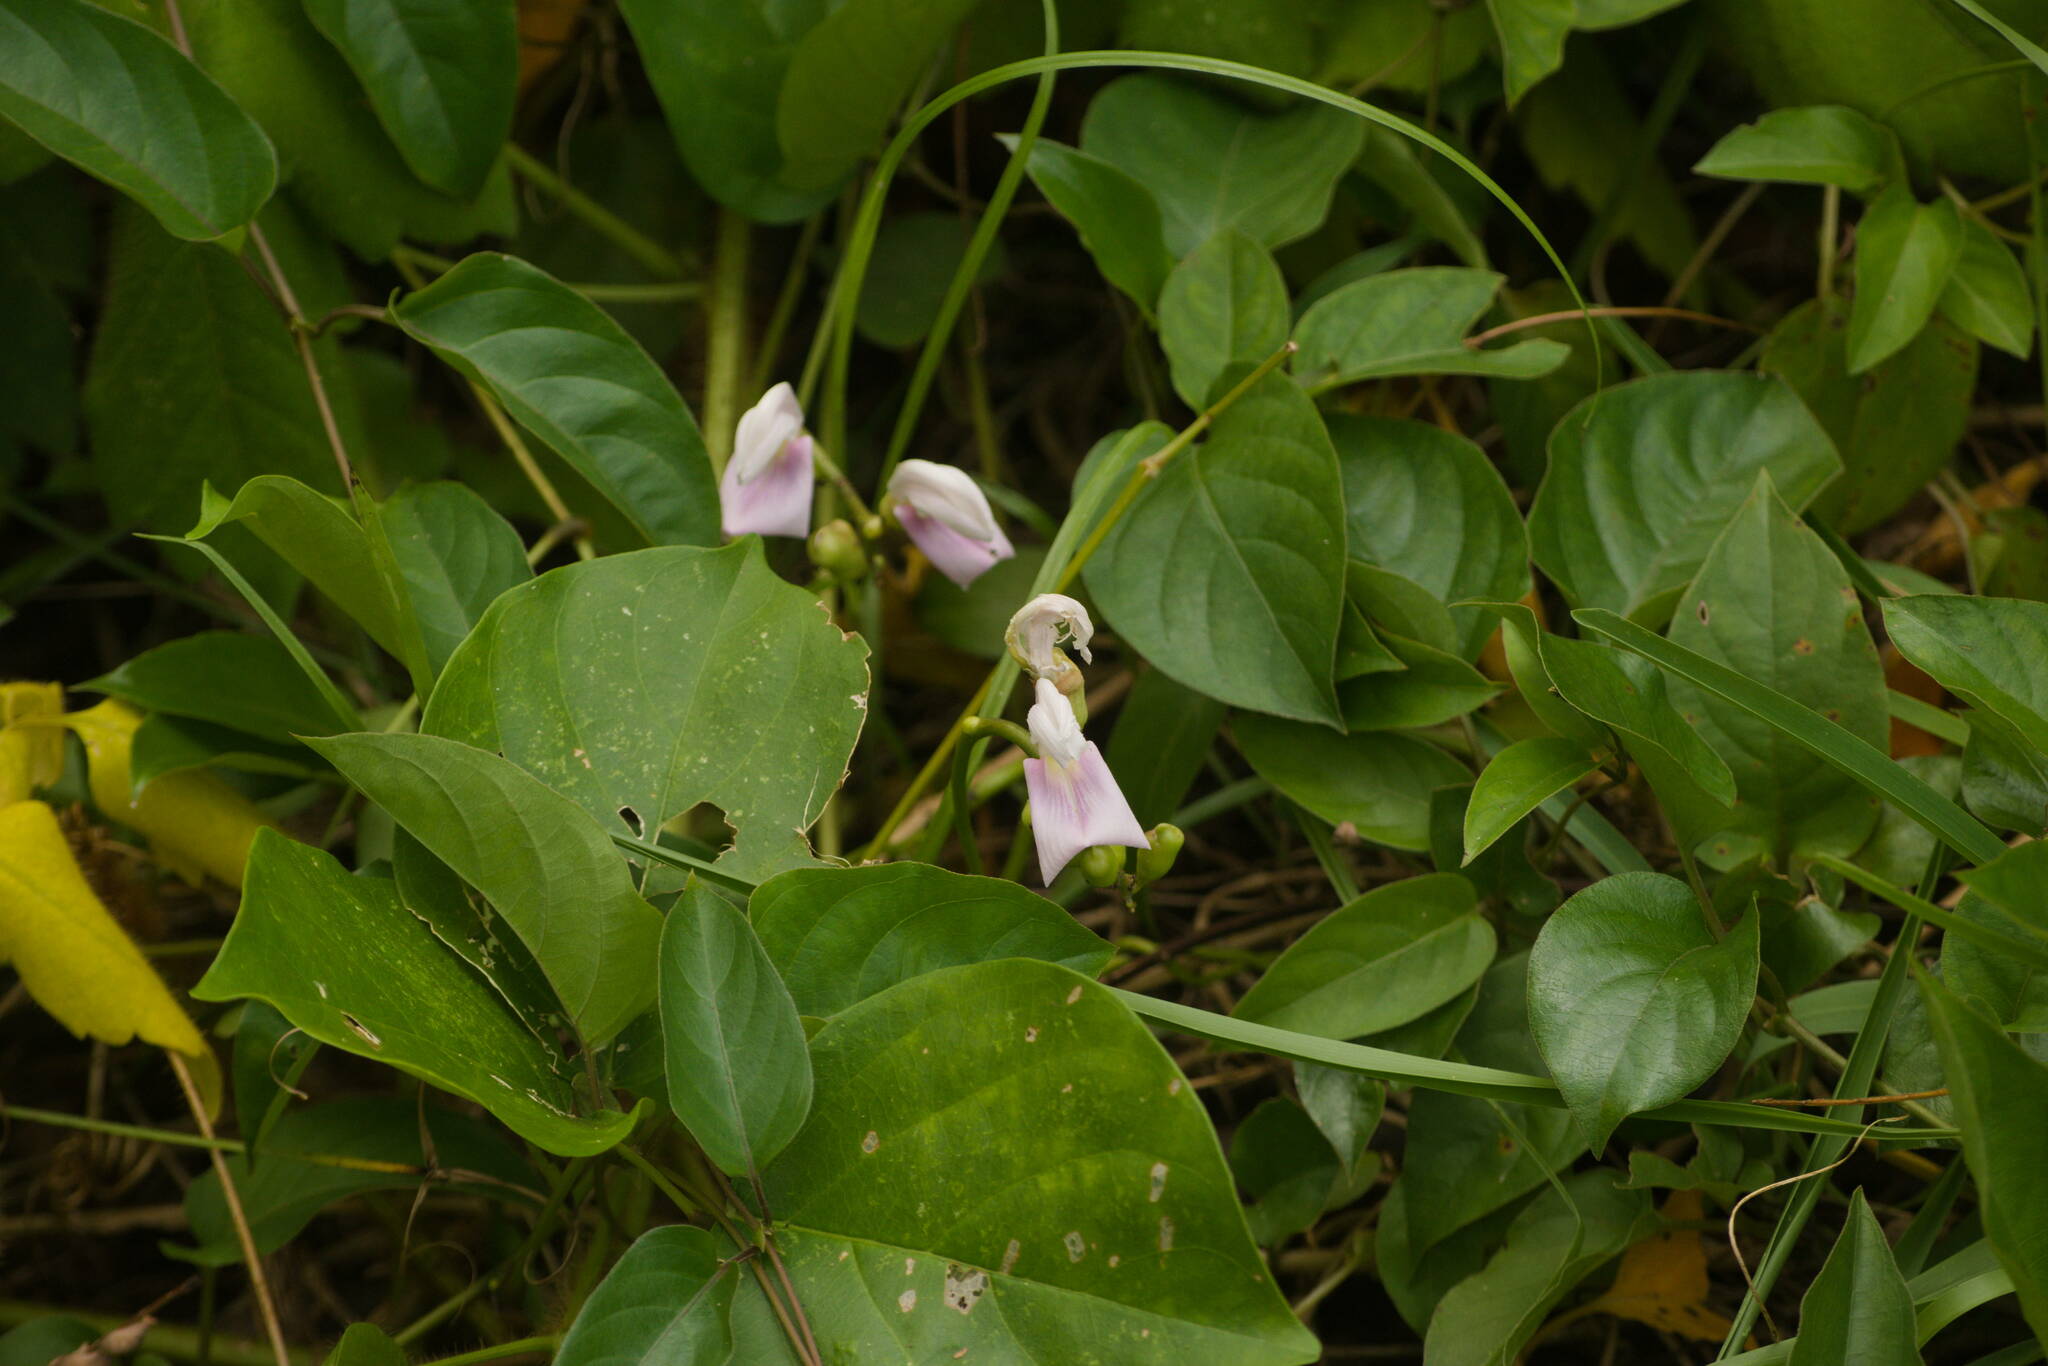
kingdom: Plantae
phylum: Tracheophyta
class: Magnoliopsida
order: Fabales
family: Fabaceae
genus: Canavalia
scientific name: Canavalia cathartica
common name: Maunaloa
